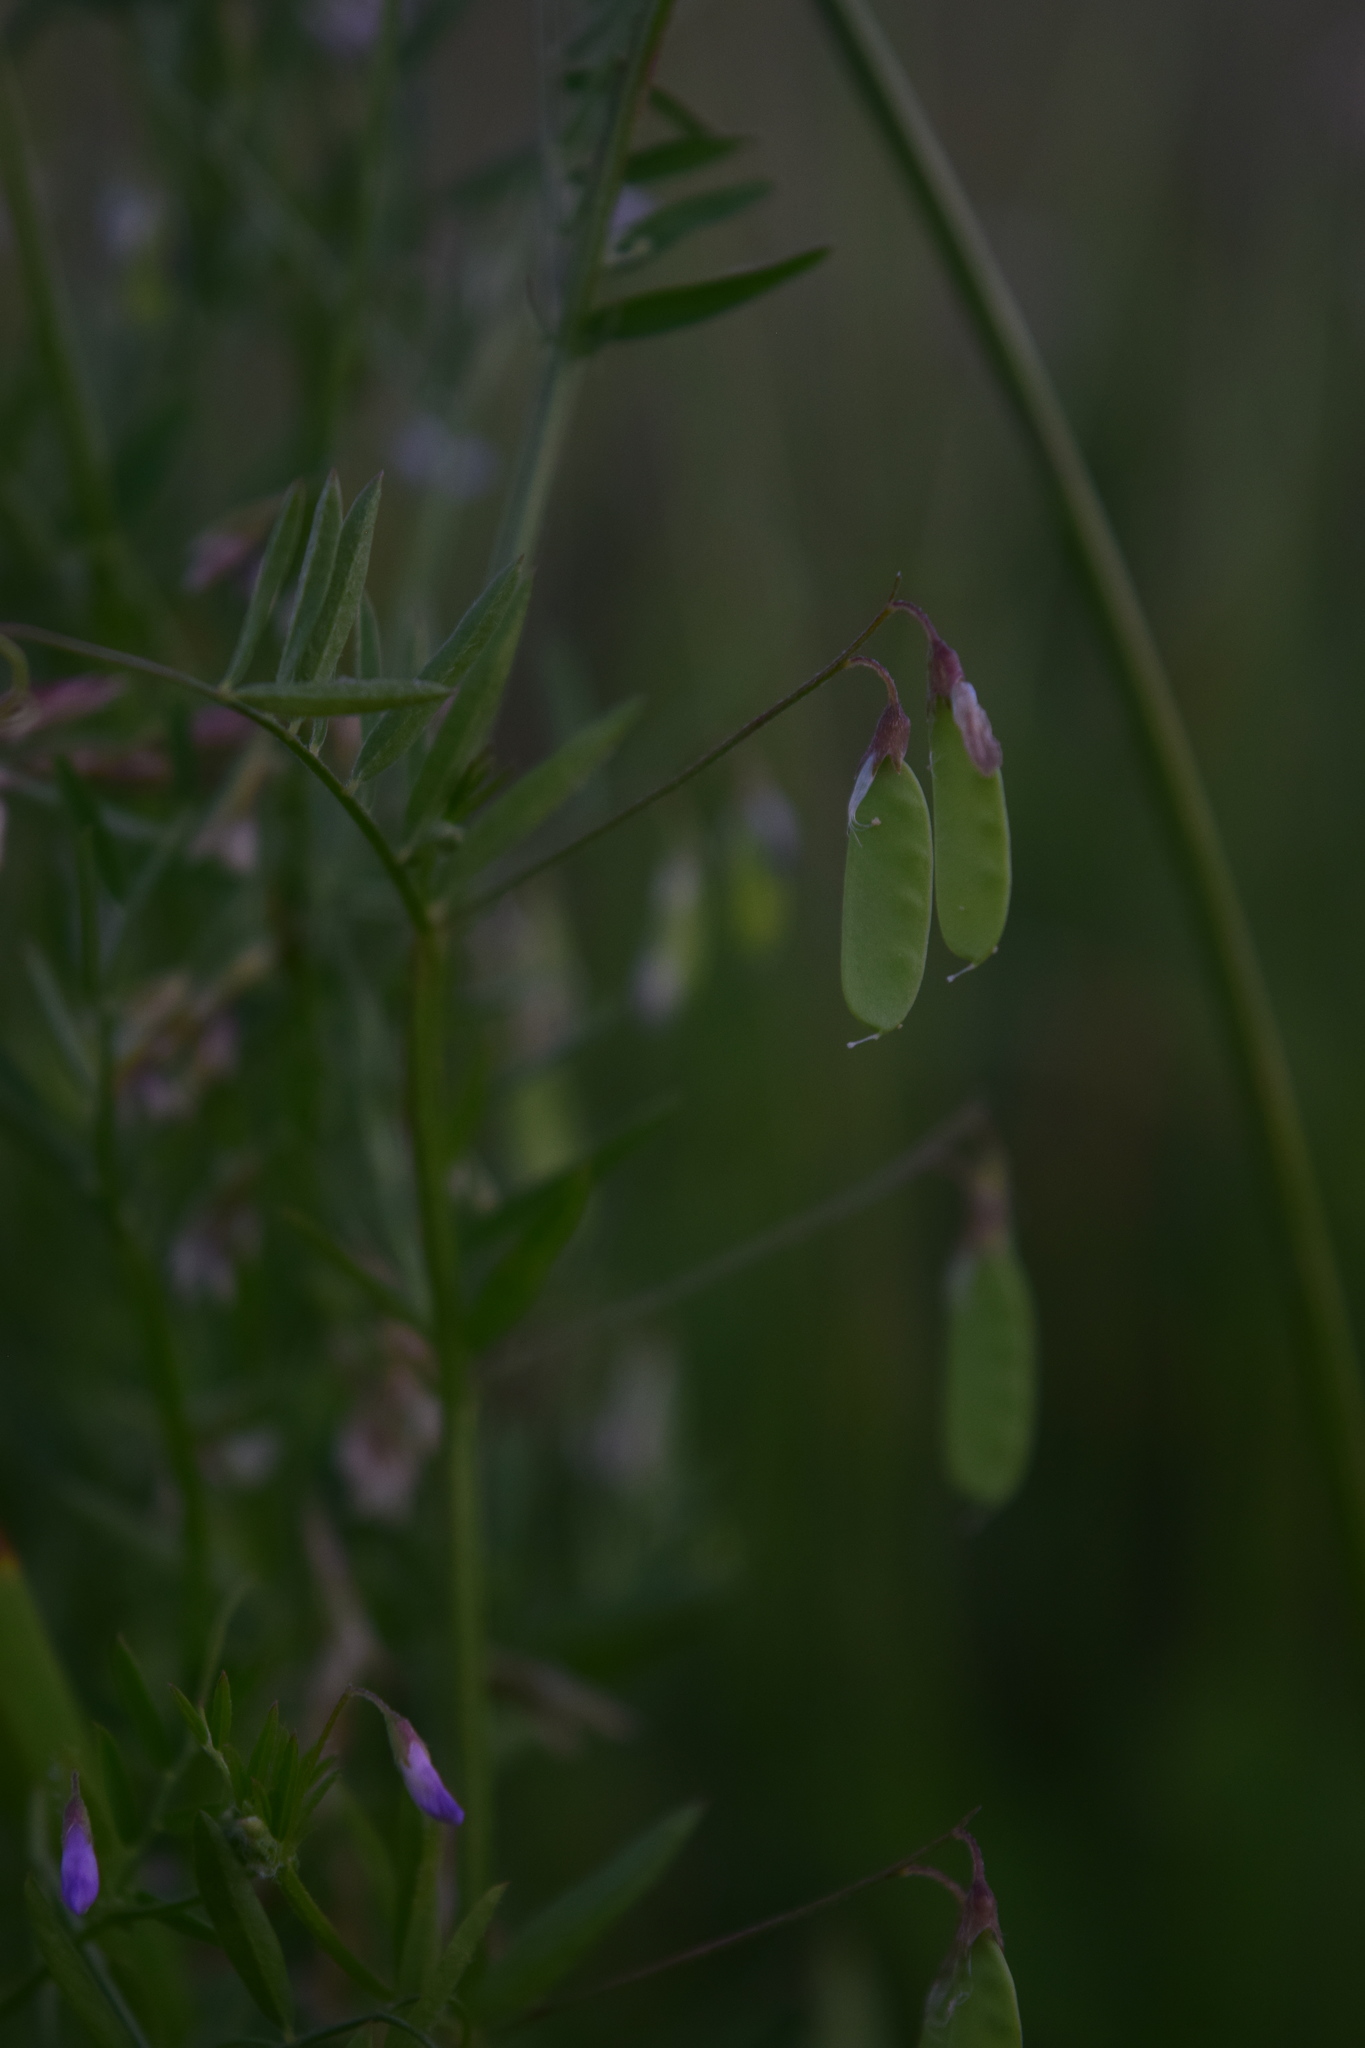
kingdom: Plantae
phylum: Tracheophyta
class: Magnoliopsida
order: Fabales
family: Fabaceae
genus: Vicia
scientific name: Vicia tetrasperma
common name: Smooth tare
